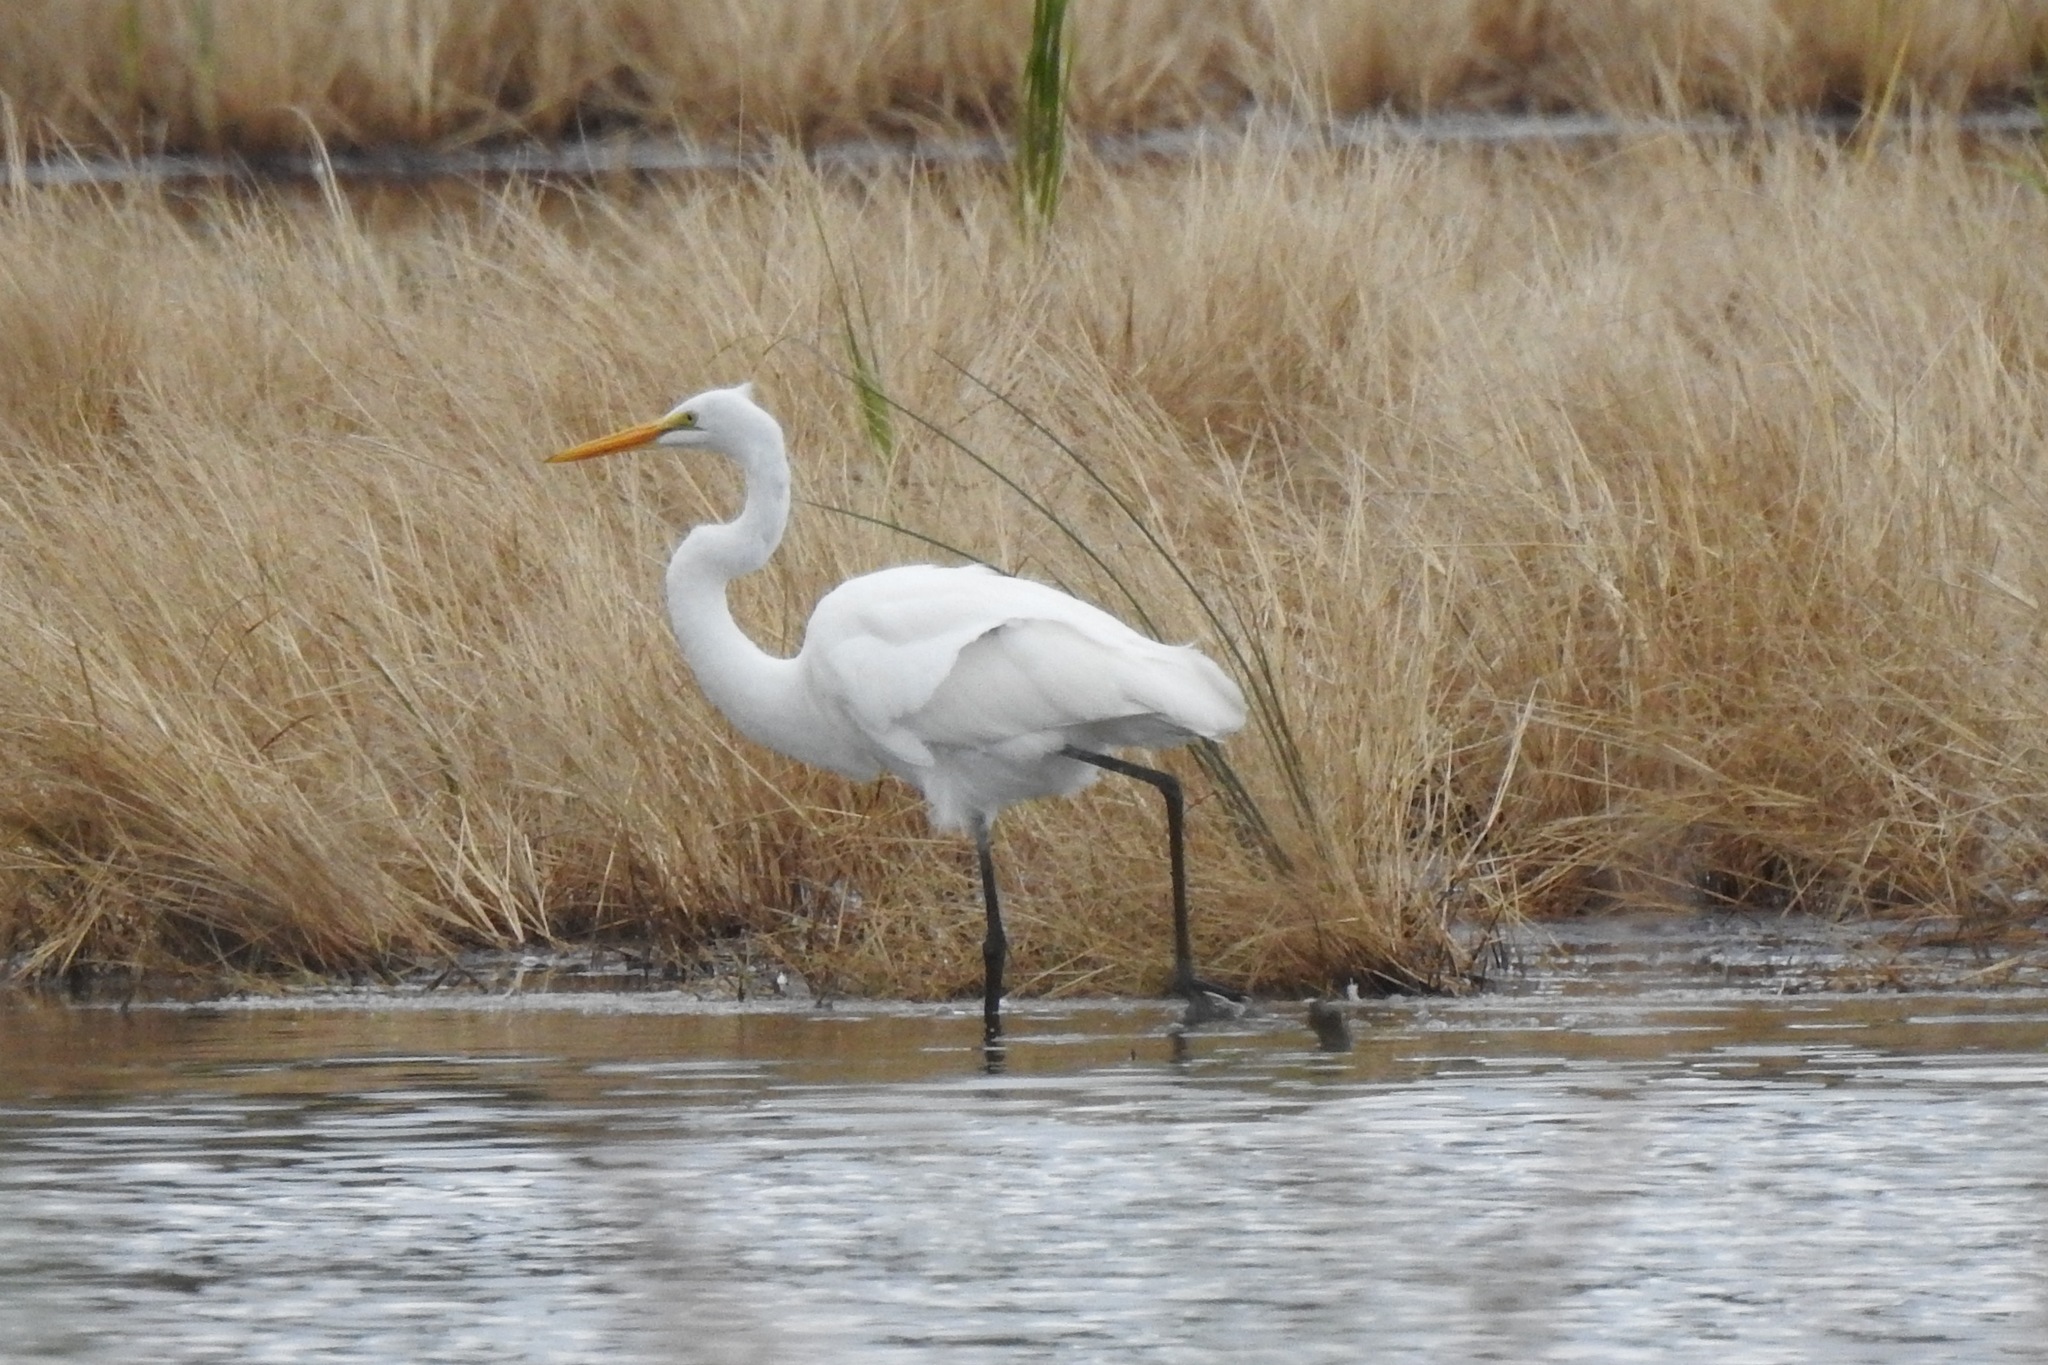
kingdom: Animalia
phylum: Chordata
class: Aves
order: Pelecaniformes
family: Ardeidae
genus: Ardea
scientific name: Ardea alba
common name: Great egret
